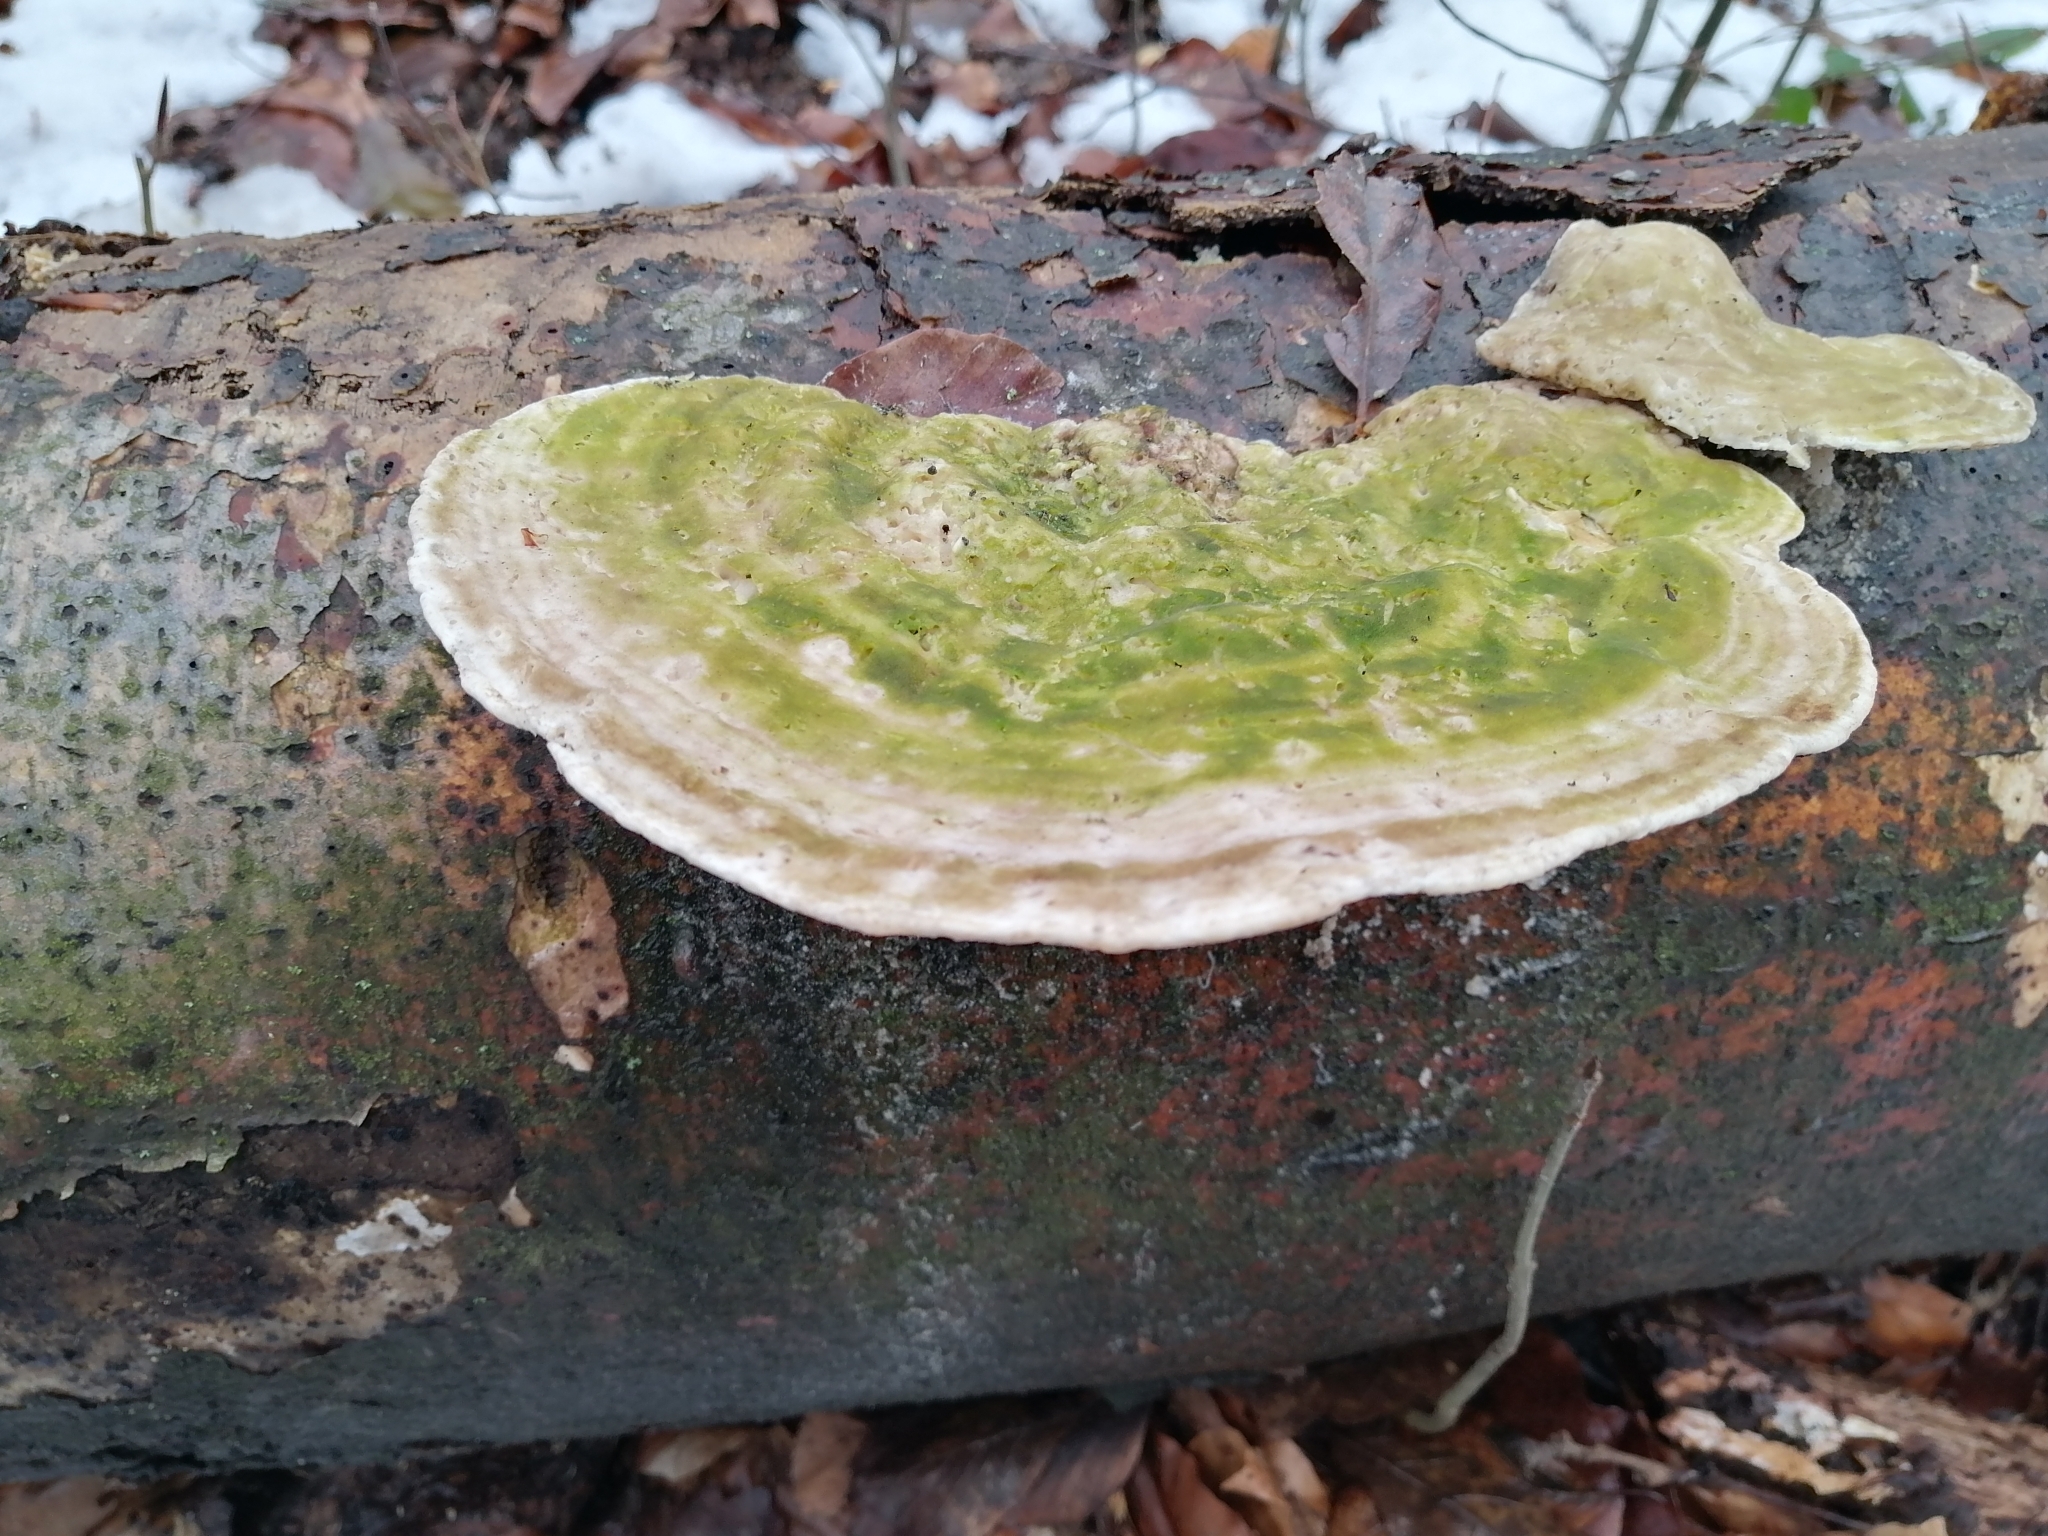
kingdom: Fungi
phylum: Basidiomycota
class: Agaricomycetes
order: Polyporales
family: Polyporaceae
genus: Trametes
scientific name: Trametes gibbosa
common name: Lumpy bracket
